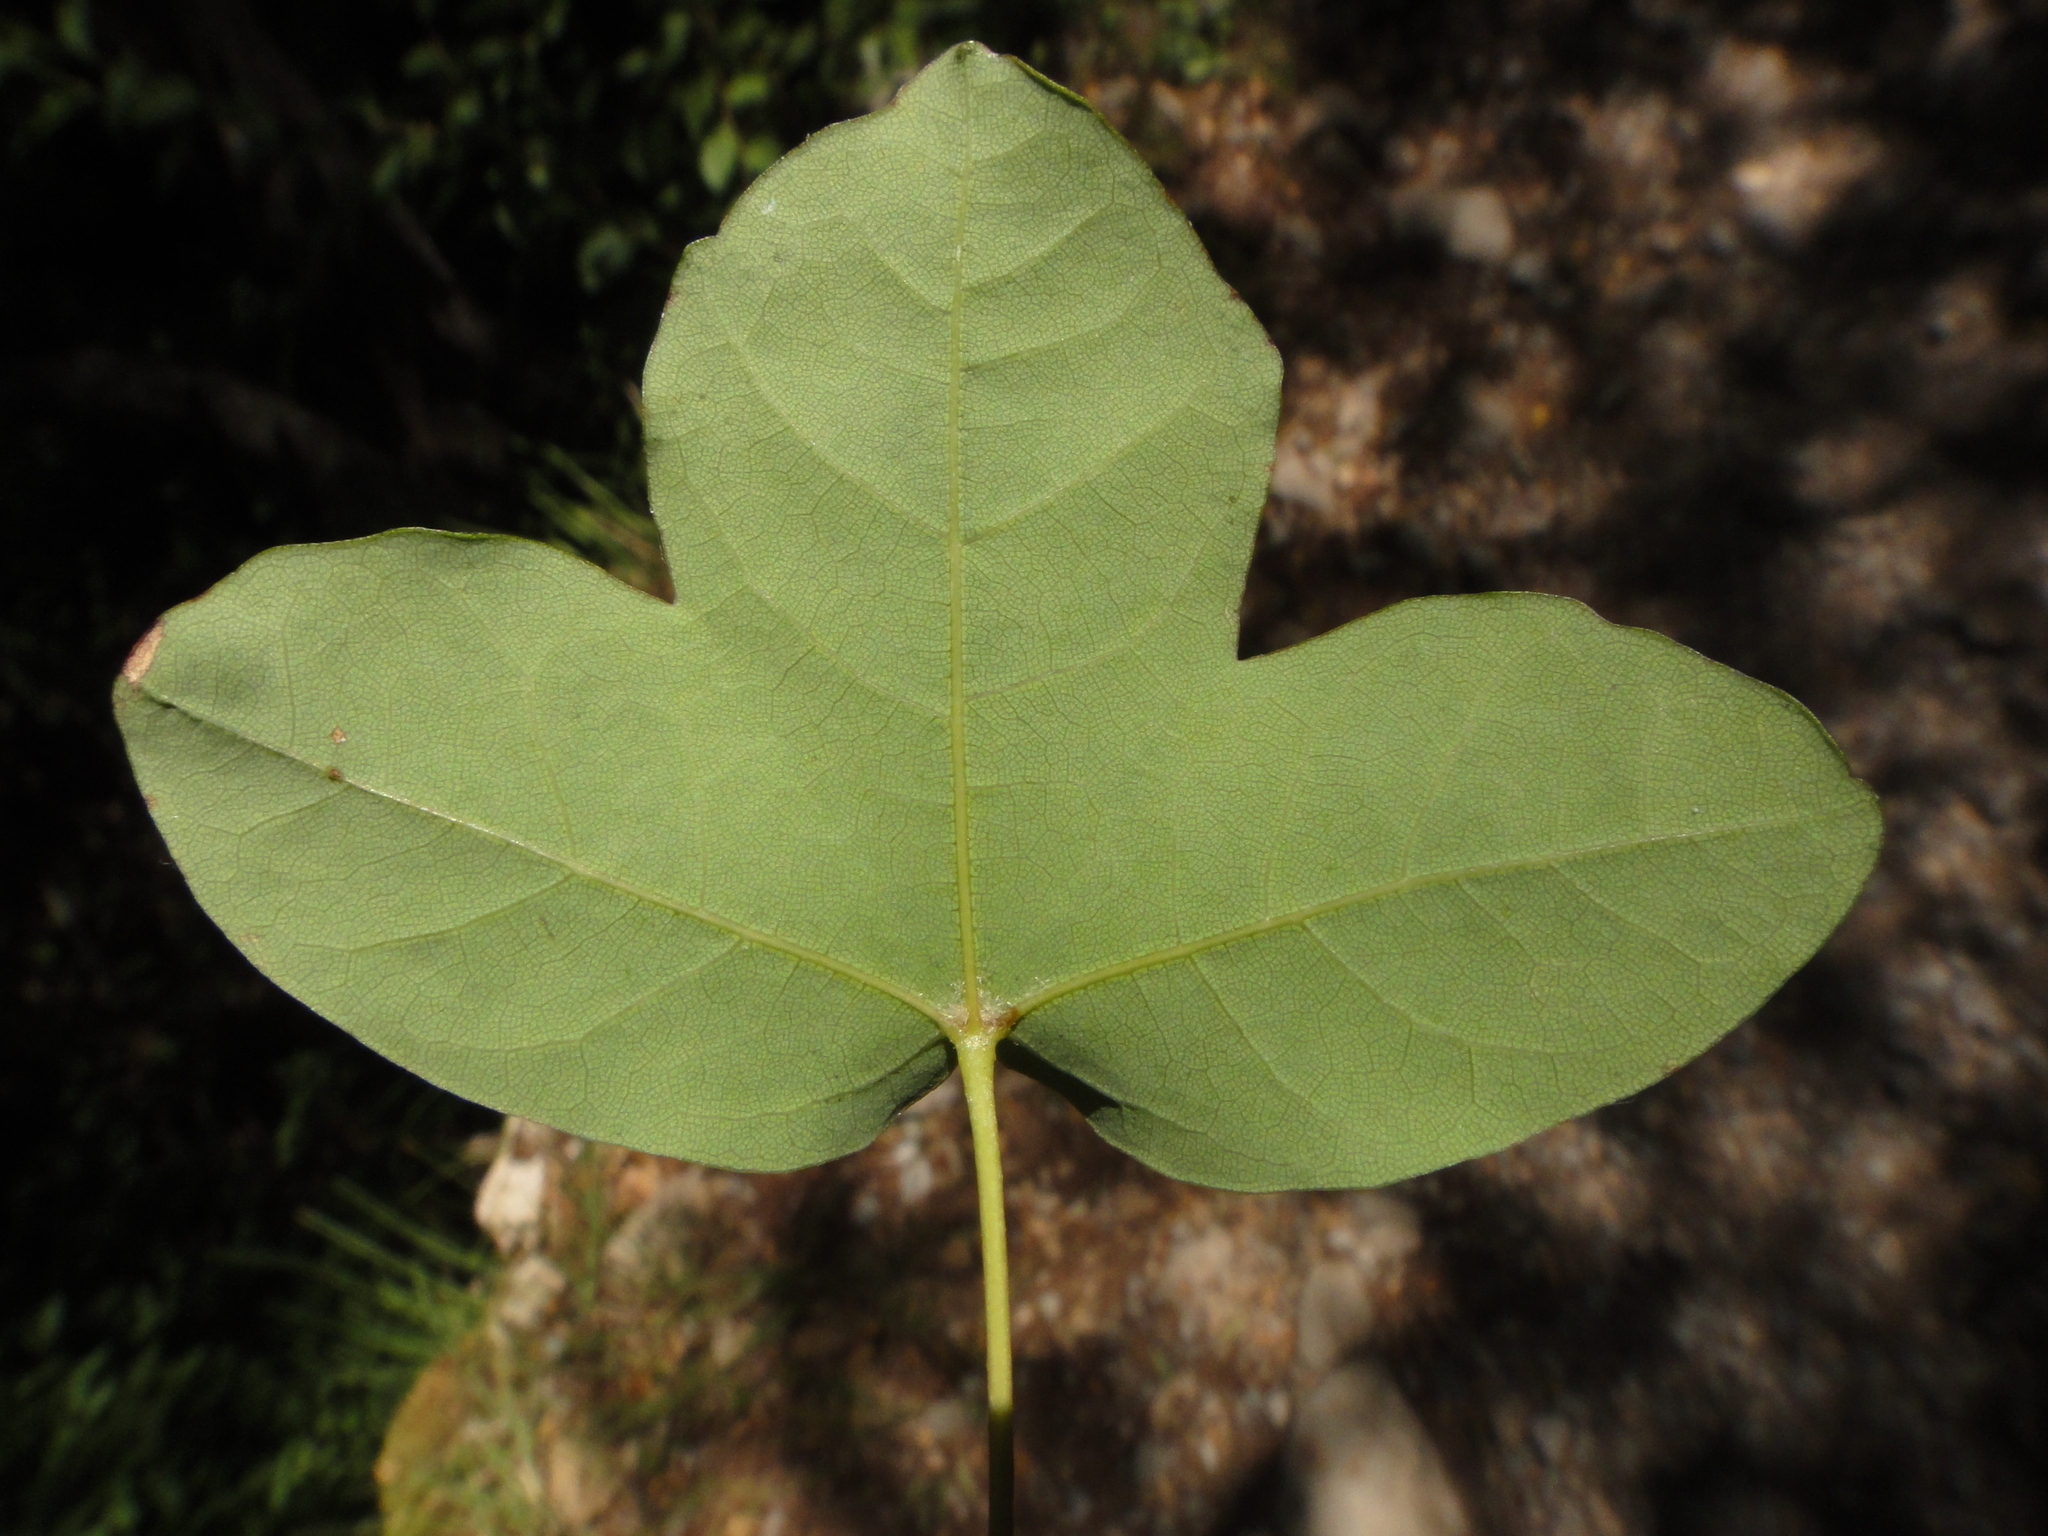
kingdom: Plantae
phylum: Tracheophyta
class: Magnoliopsida
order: Sapindales
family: Sapindaceae
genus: Acer
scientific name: Acer monspessulanum
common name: Montpellier maple
